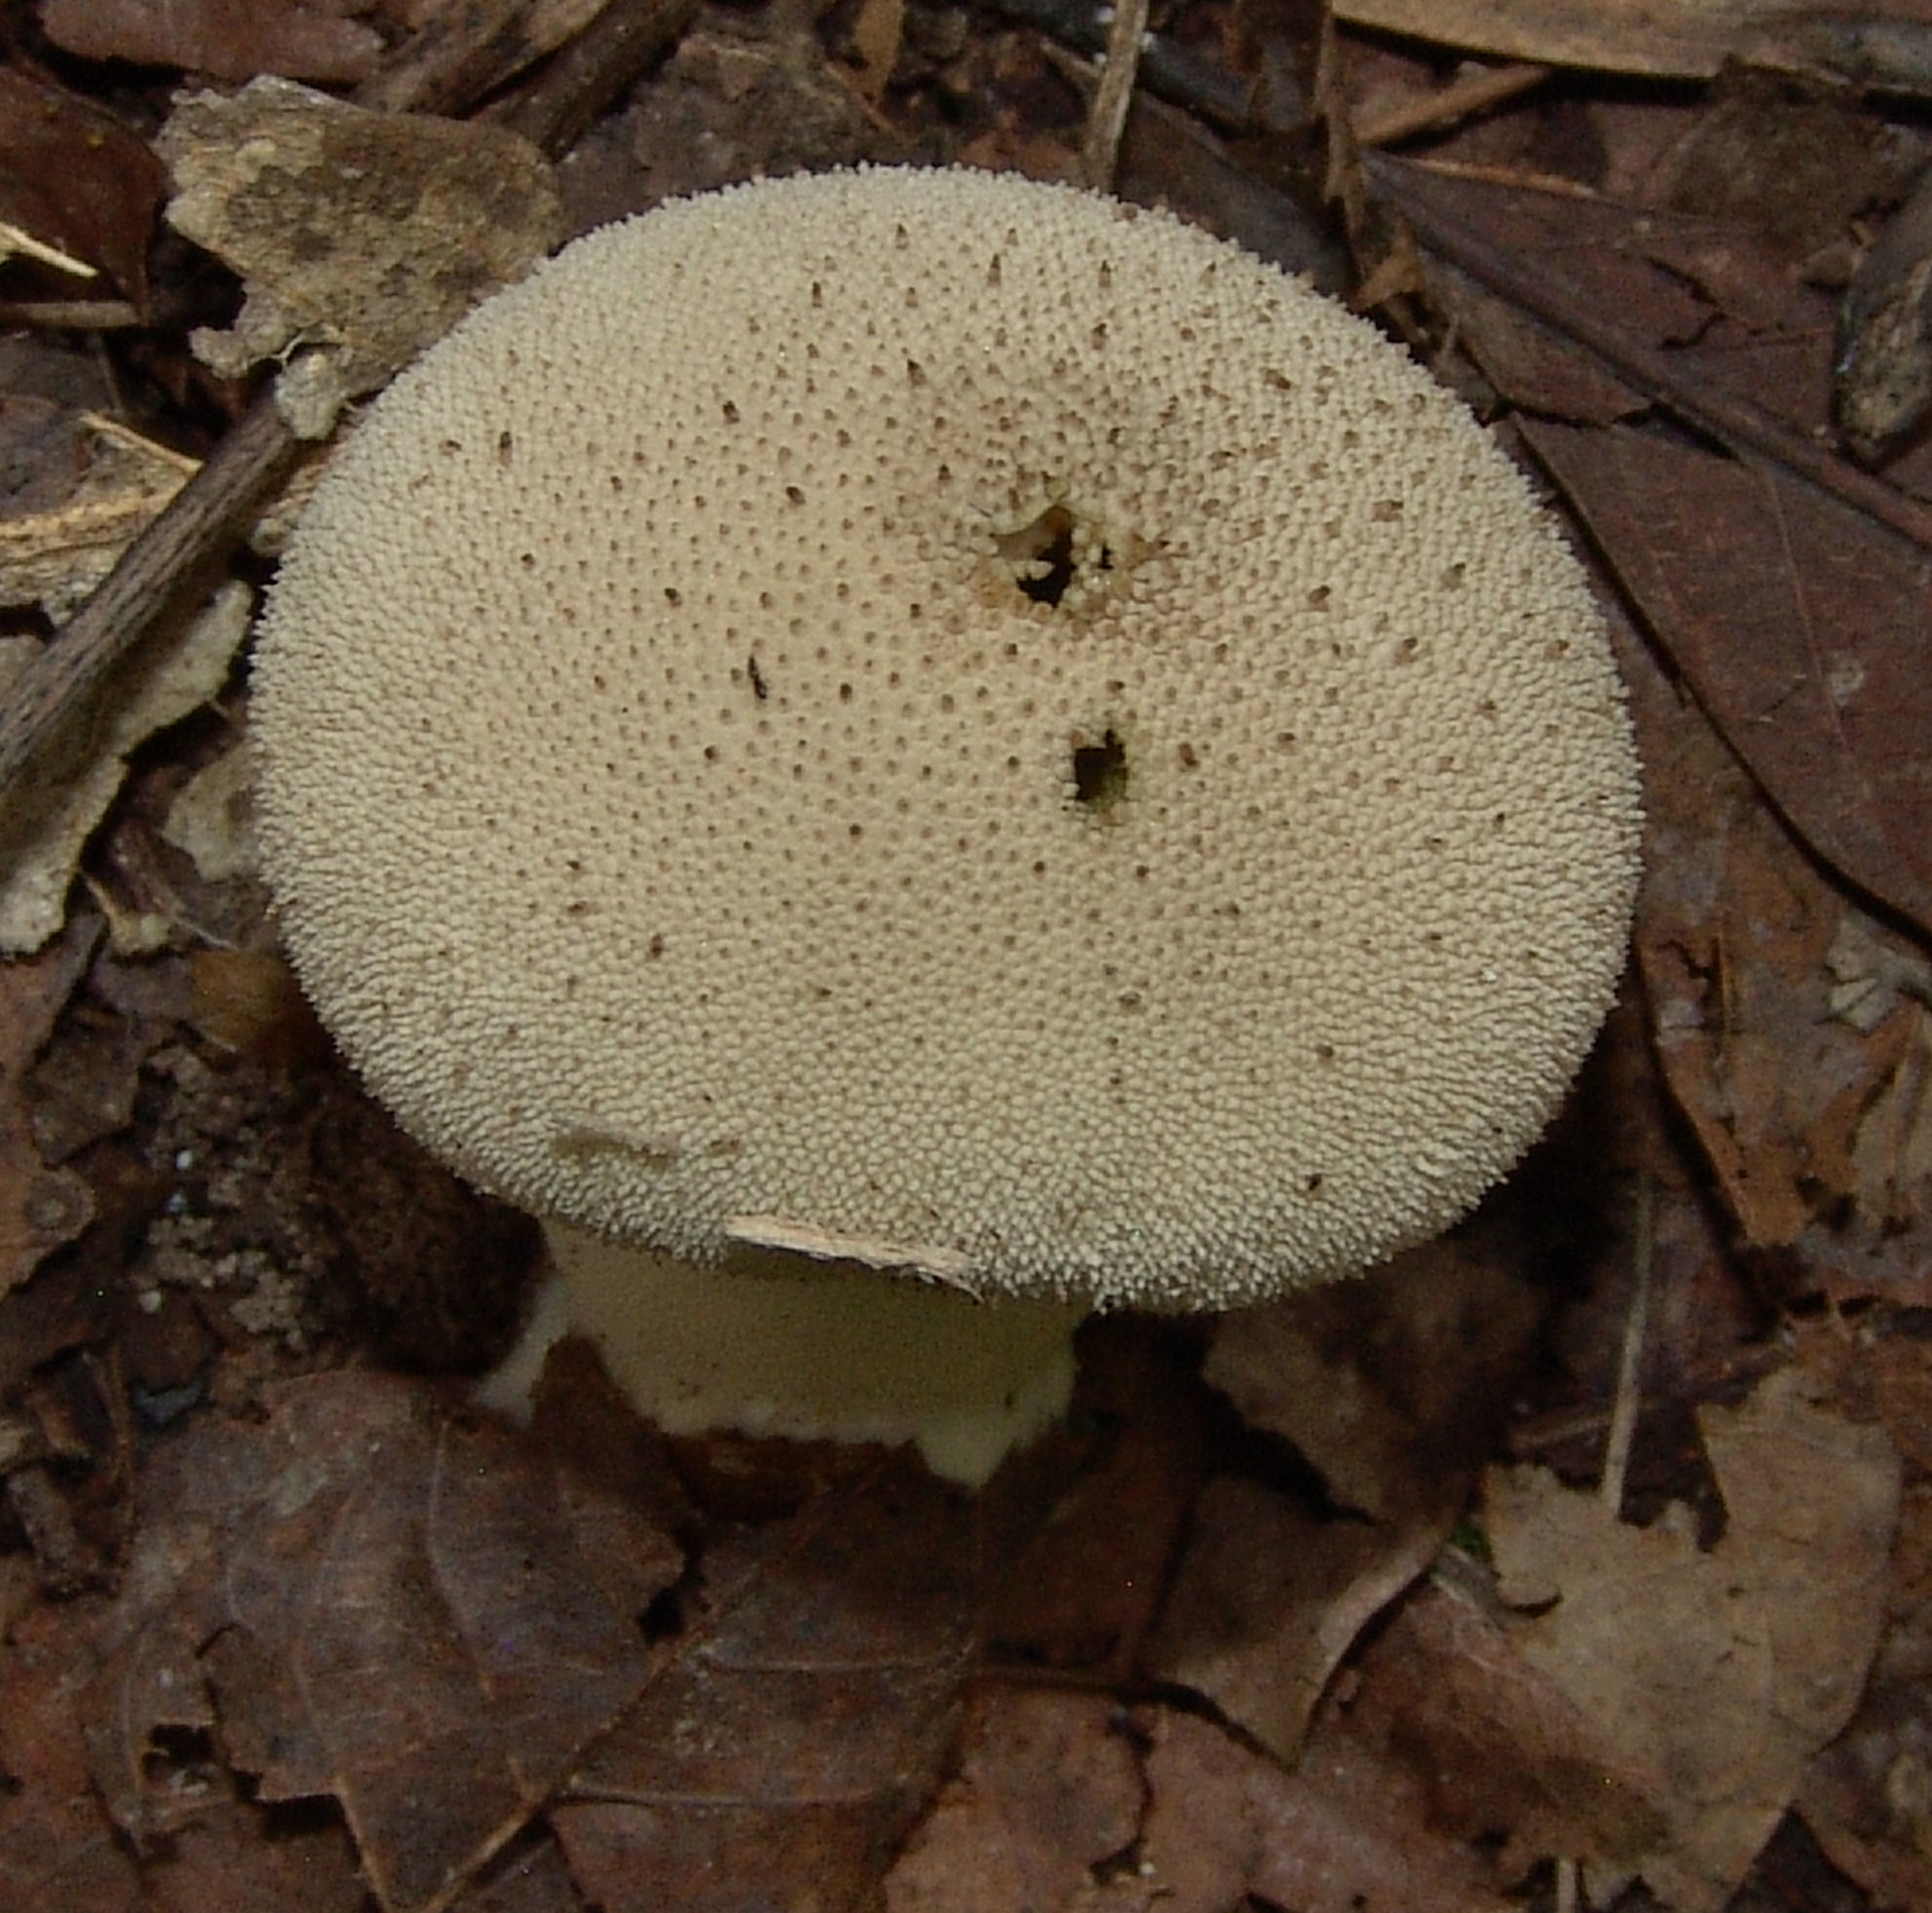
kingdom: Fungi
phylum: Basidiomycota
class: Agaricomycetes
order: Agaricales
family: Lycoperdaceae
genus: Lycoperdon
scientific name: Lycoperdon perlatum
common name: Common puffball
